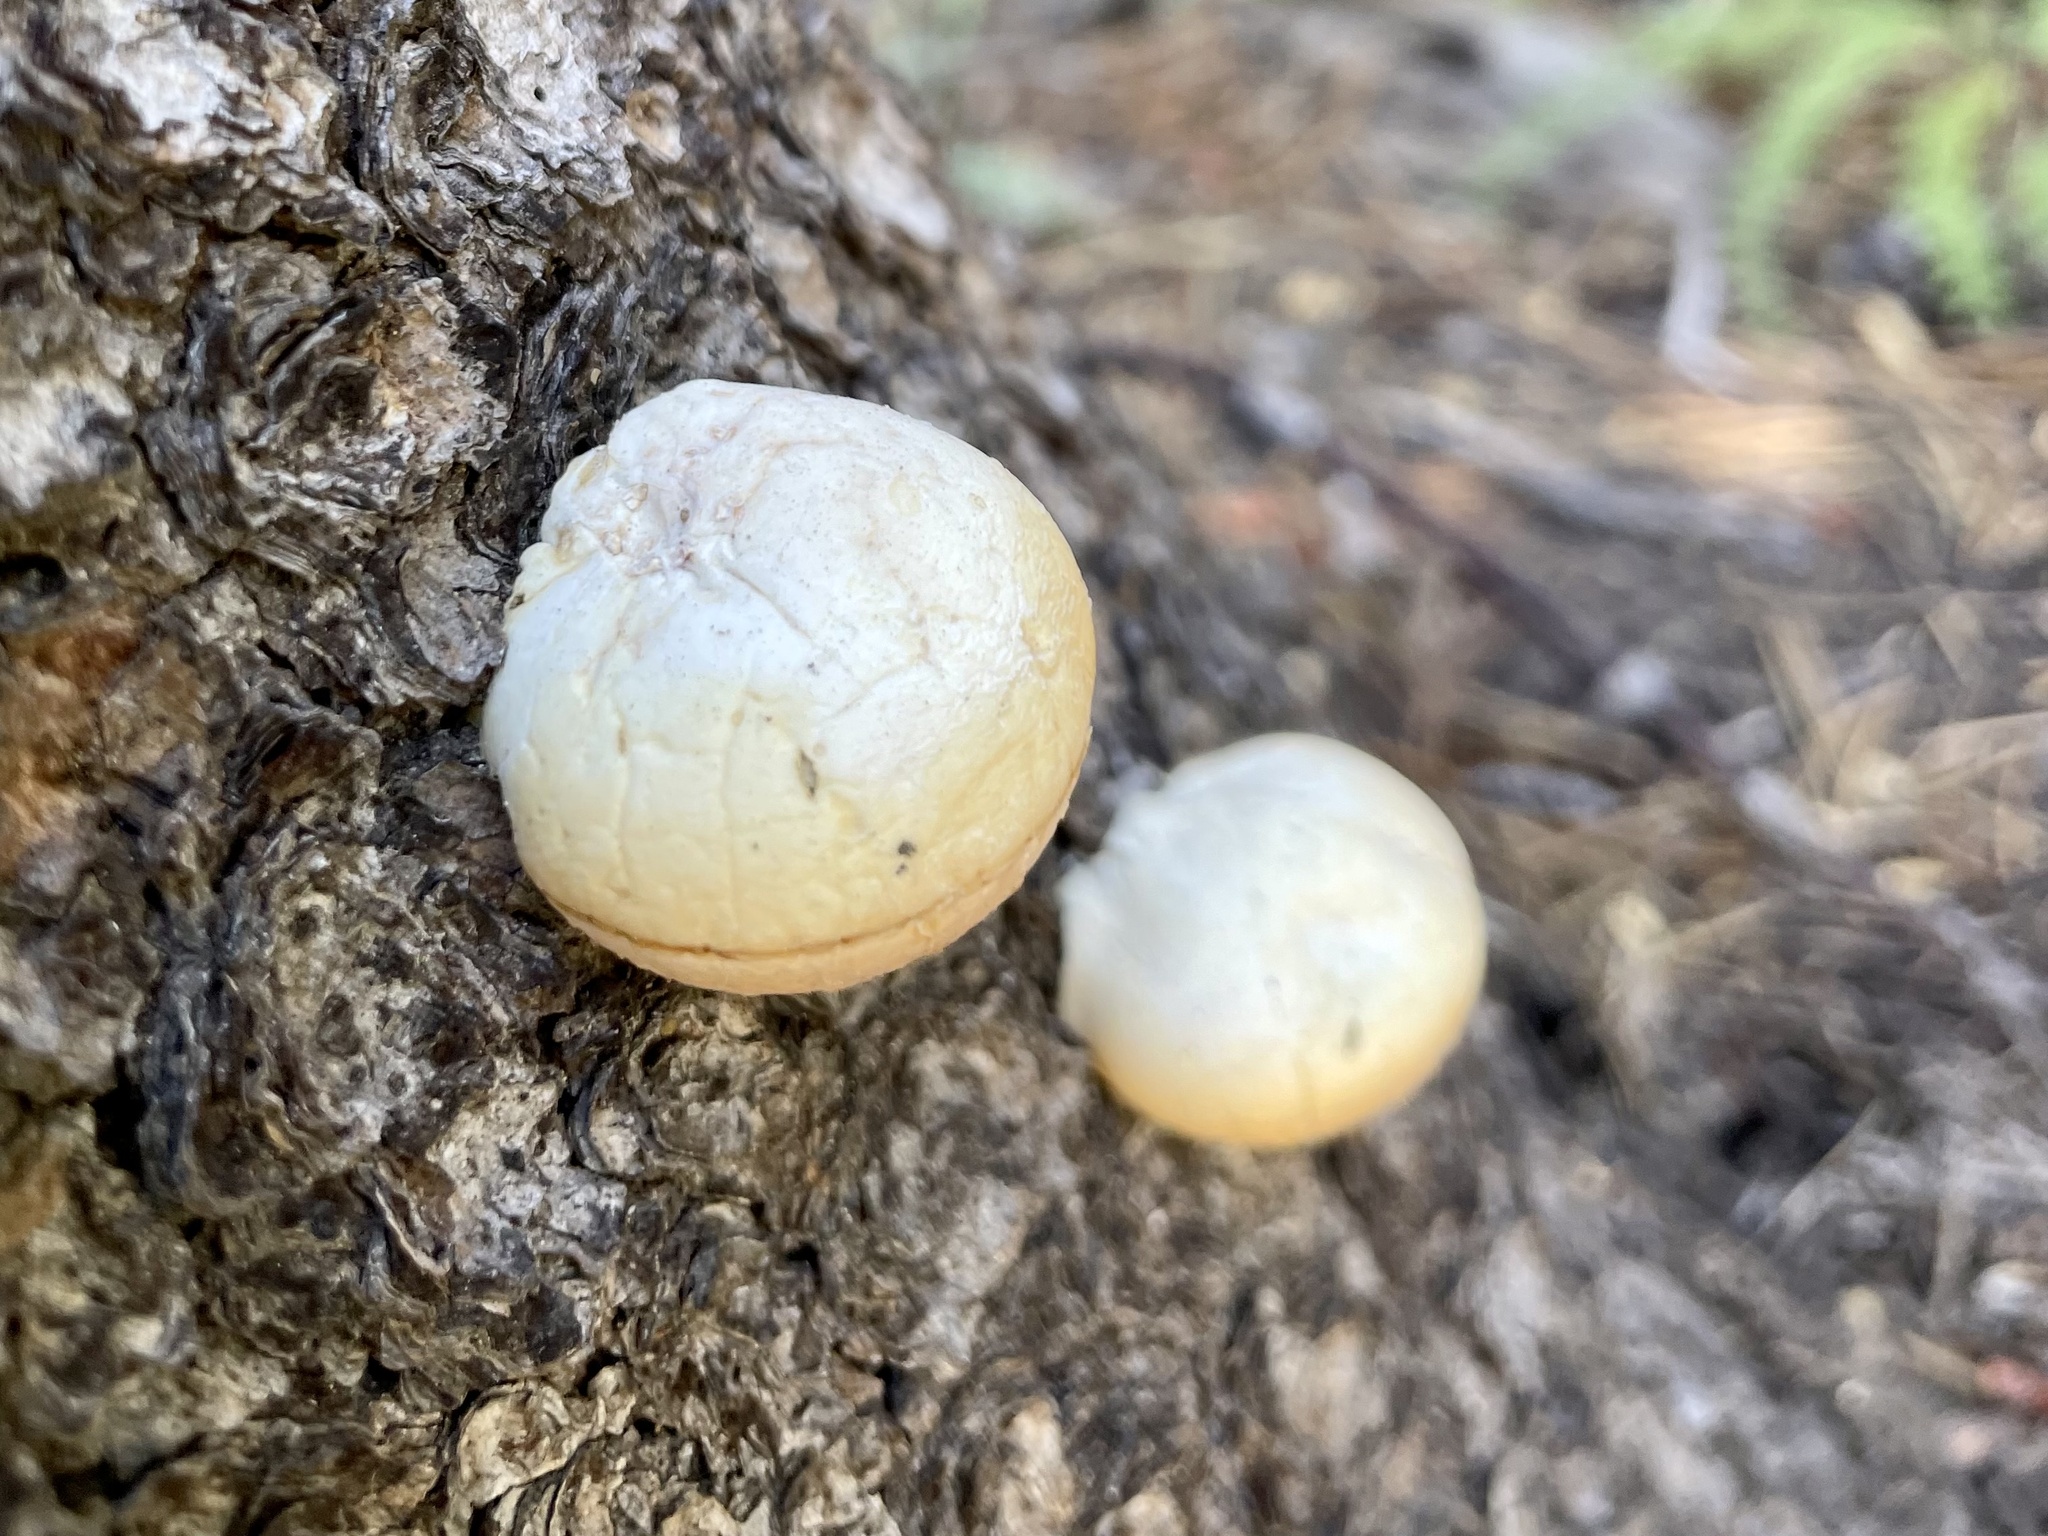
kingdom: Fungi
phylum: Basidiomycota
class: Agaricomycetes
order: Polyporales
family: Polyporaceae
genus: Cryptoporus
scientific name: Cryptoporus volvatus
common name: Veiled polypore
